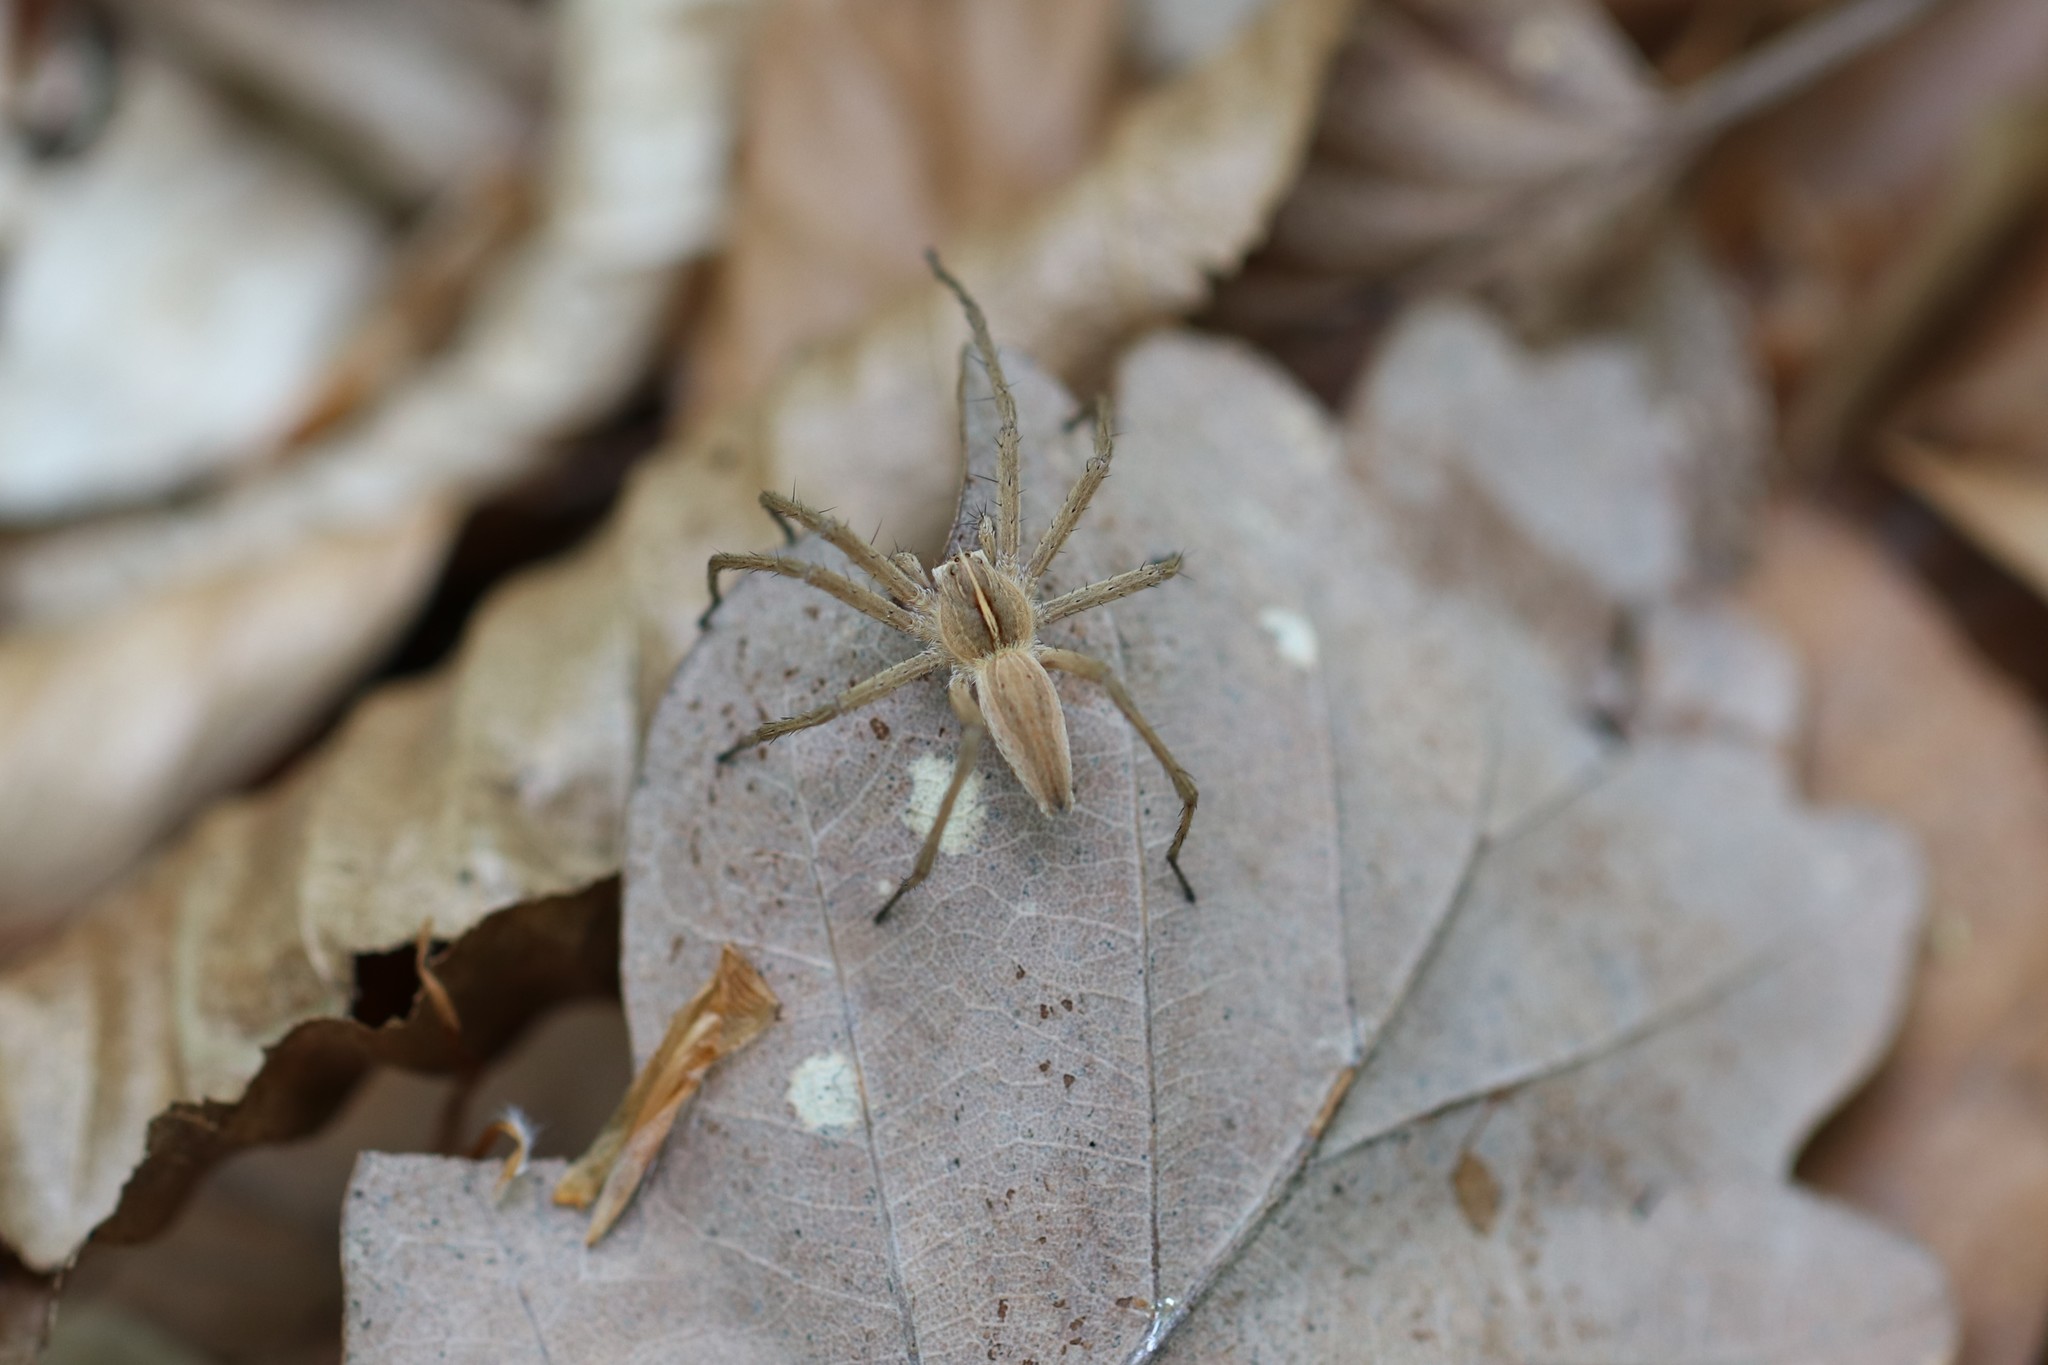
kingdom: Animalia
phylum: Arthropoda
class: Arachnida
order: Araneae
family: Pisauridae
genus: Pisaura
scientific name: Pisaura mirabilis
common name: Tent spider
